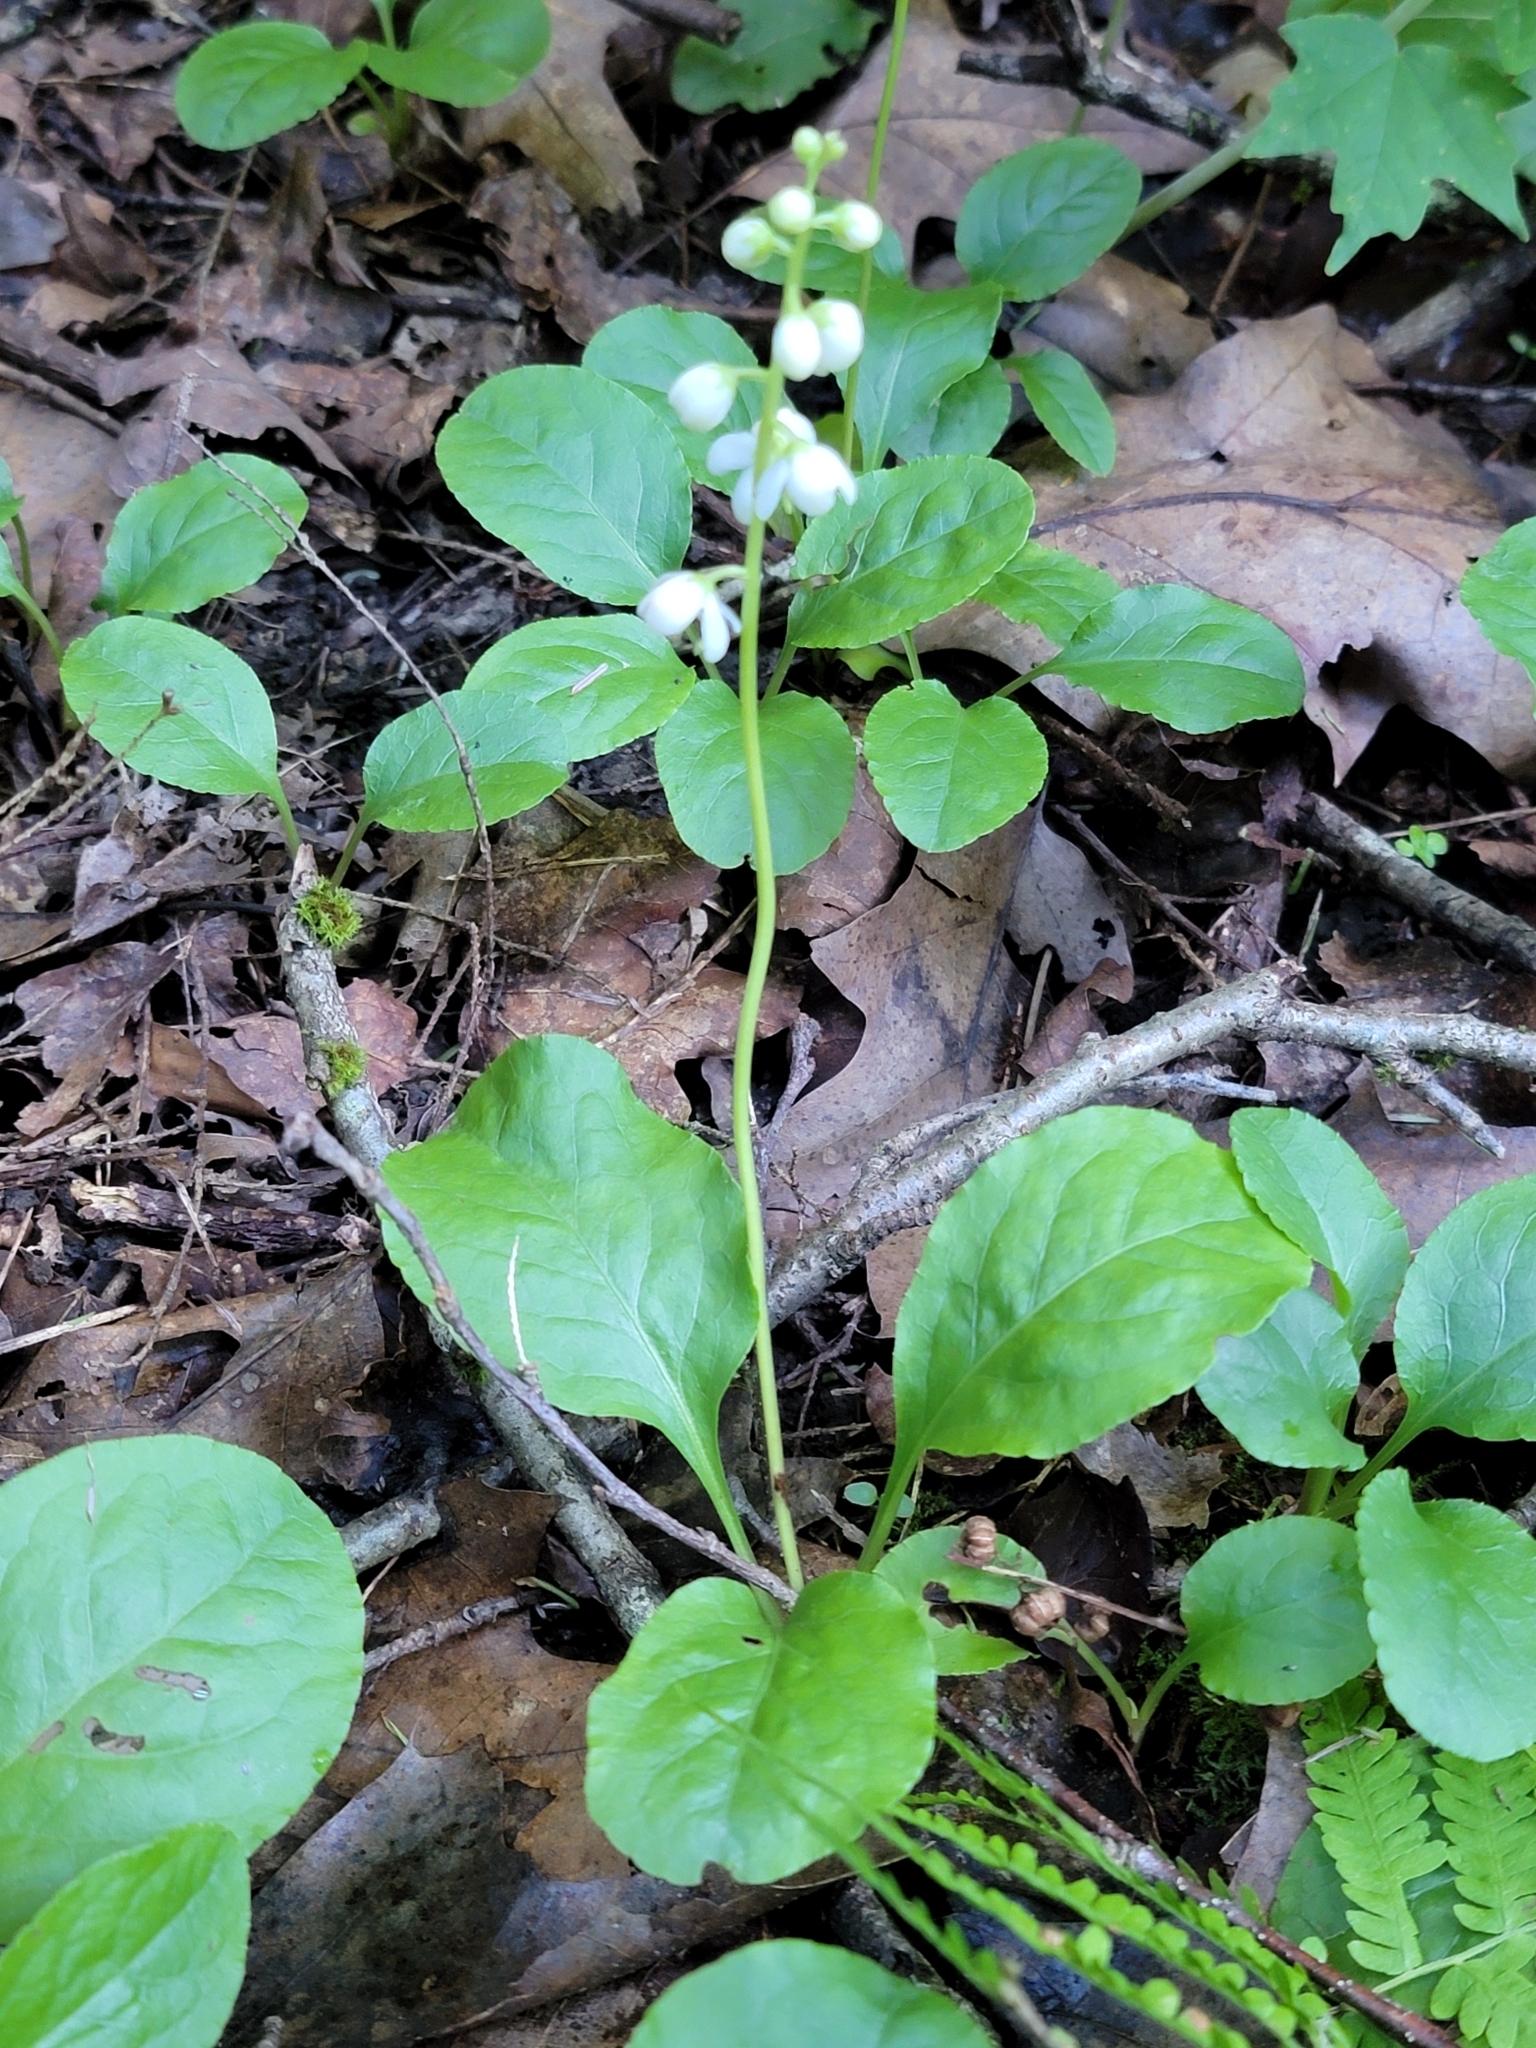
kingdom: Plantae
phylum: Tracheophyta
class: Magnoliopsida
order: Ericales
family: Ericaceae
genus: Pyrola
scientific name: Pyrola elliptica
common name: Shinleaf
